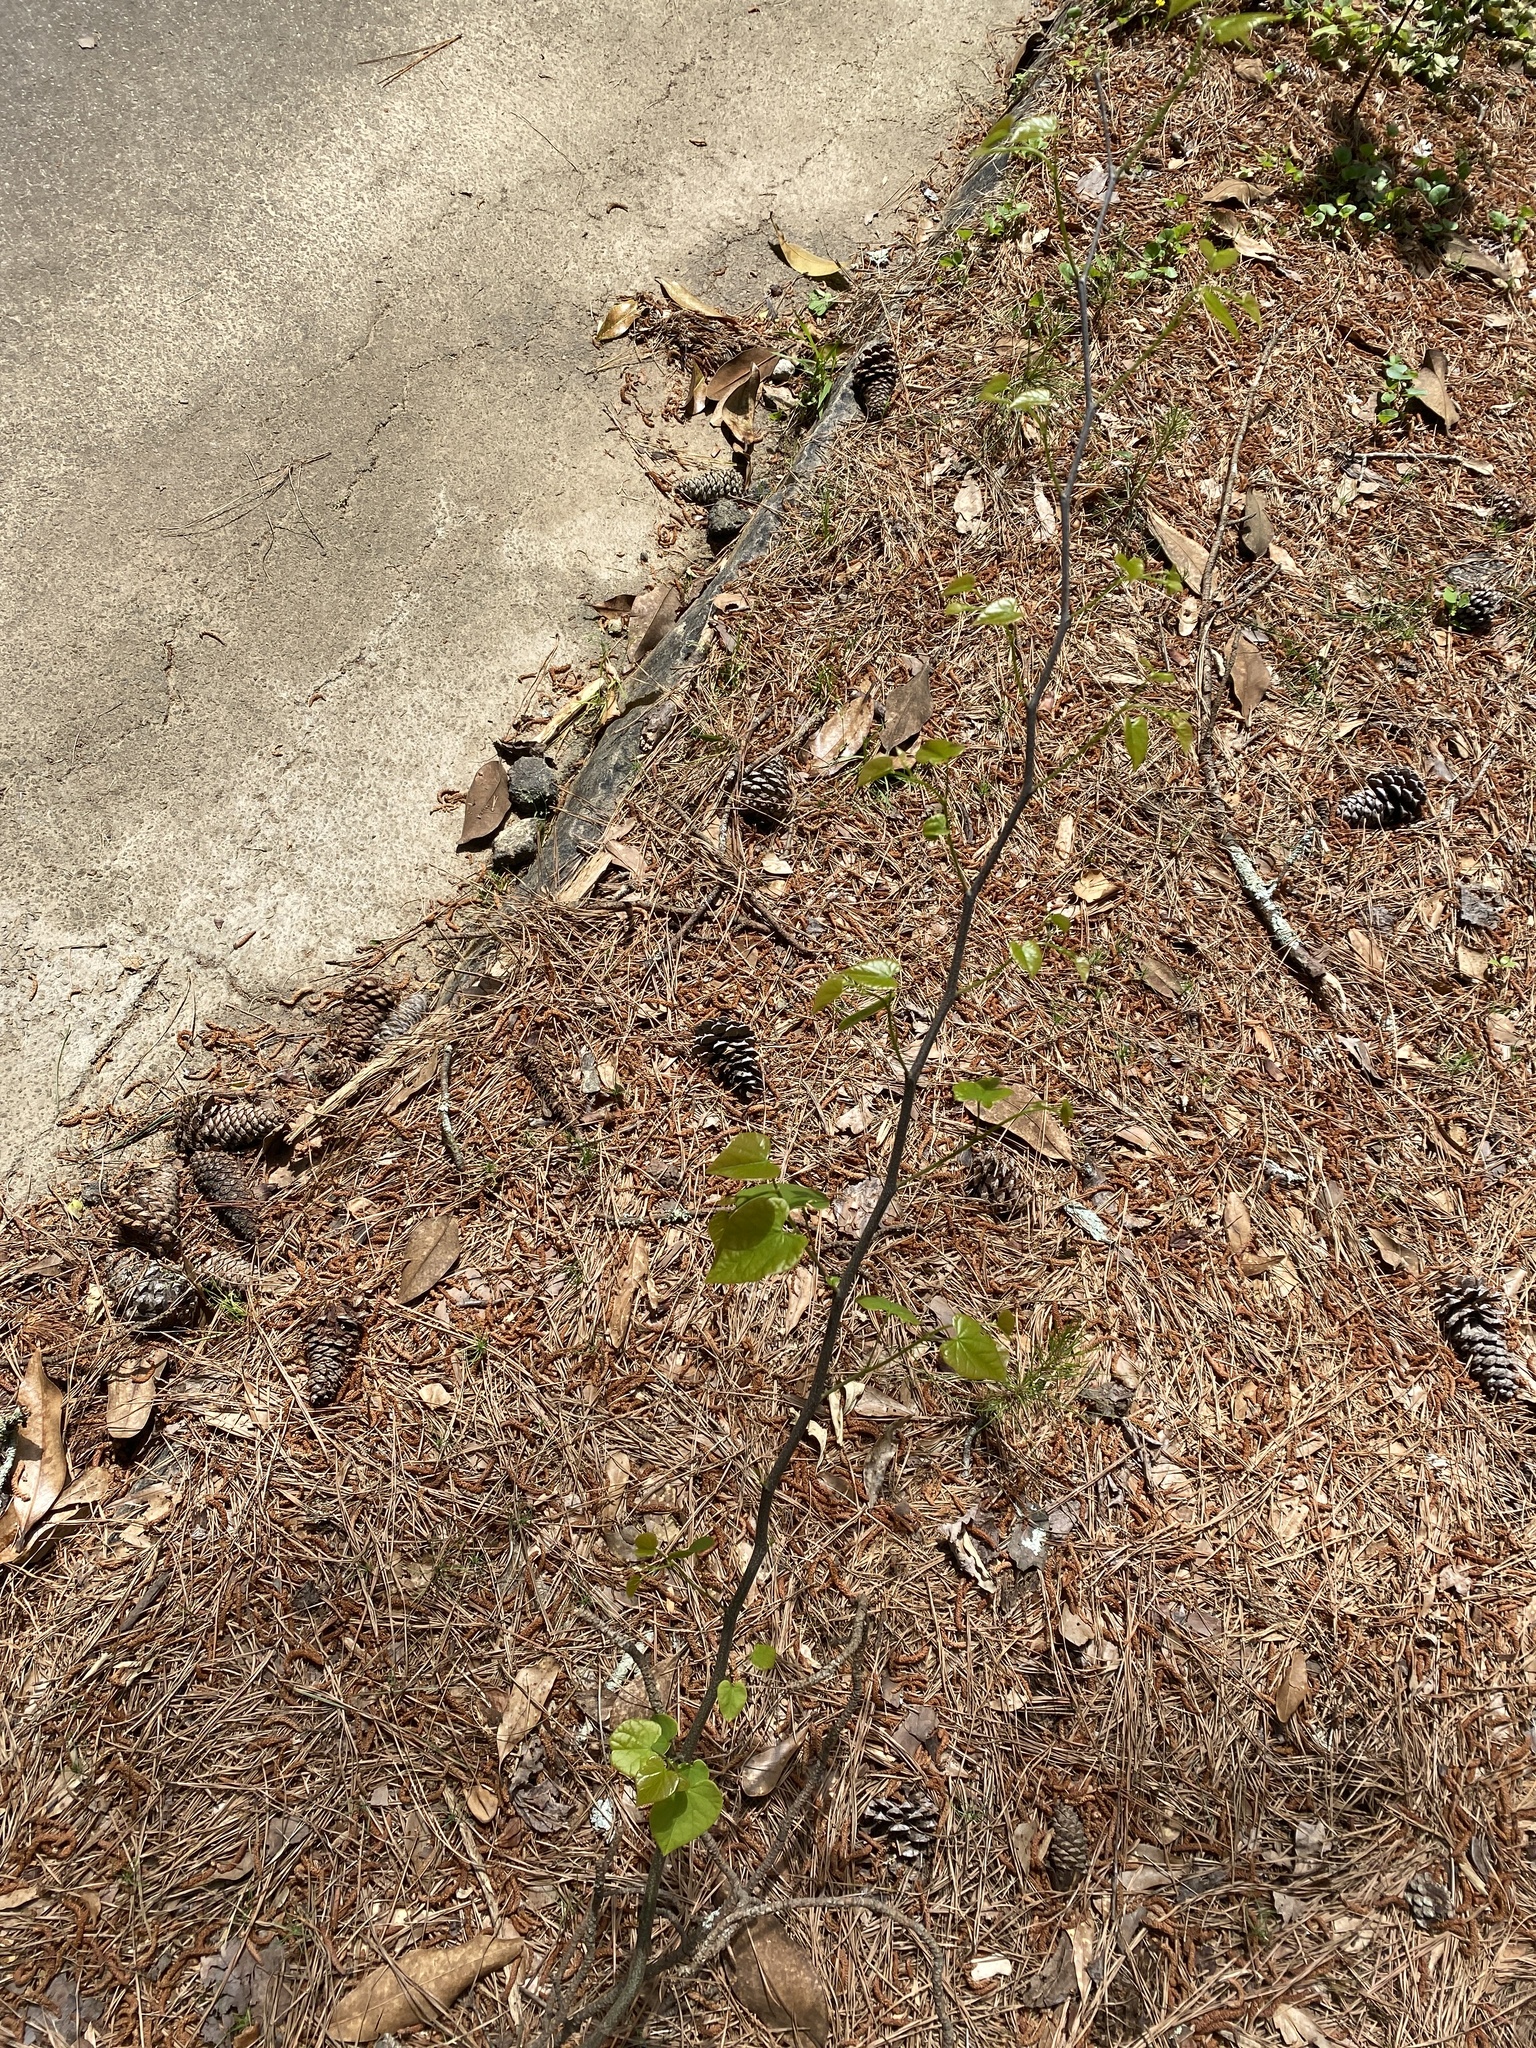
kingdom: Plantae
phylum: Tracheophyta
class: Magnoliopsida
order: Fabales
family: Fabaceae
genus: Cercis
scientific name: Cercis canadensis
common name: Eastern redbud
